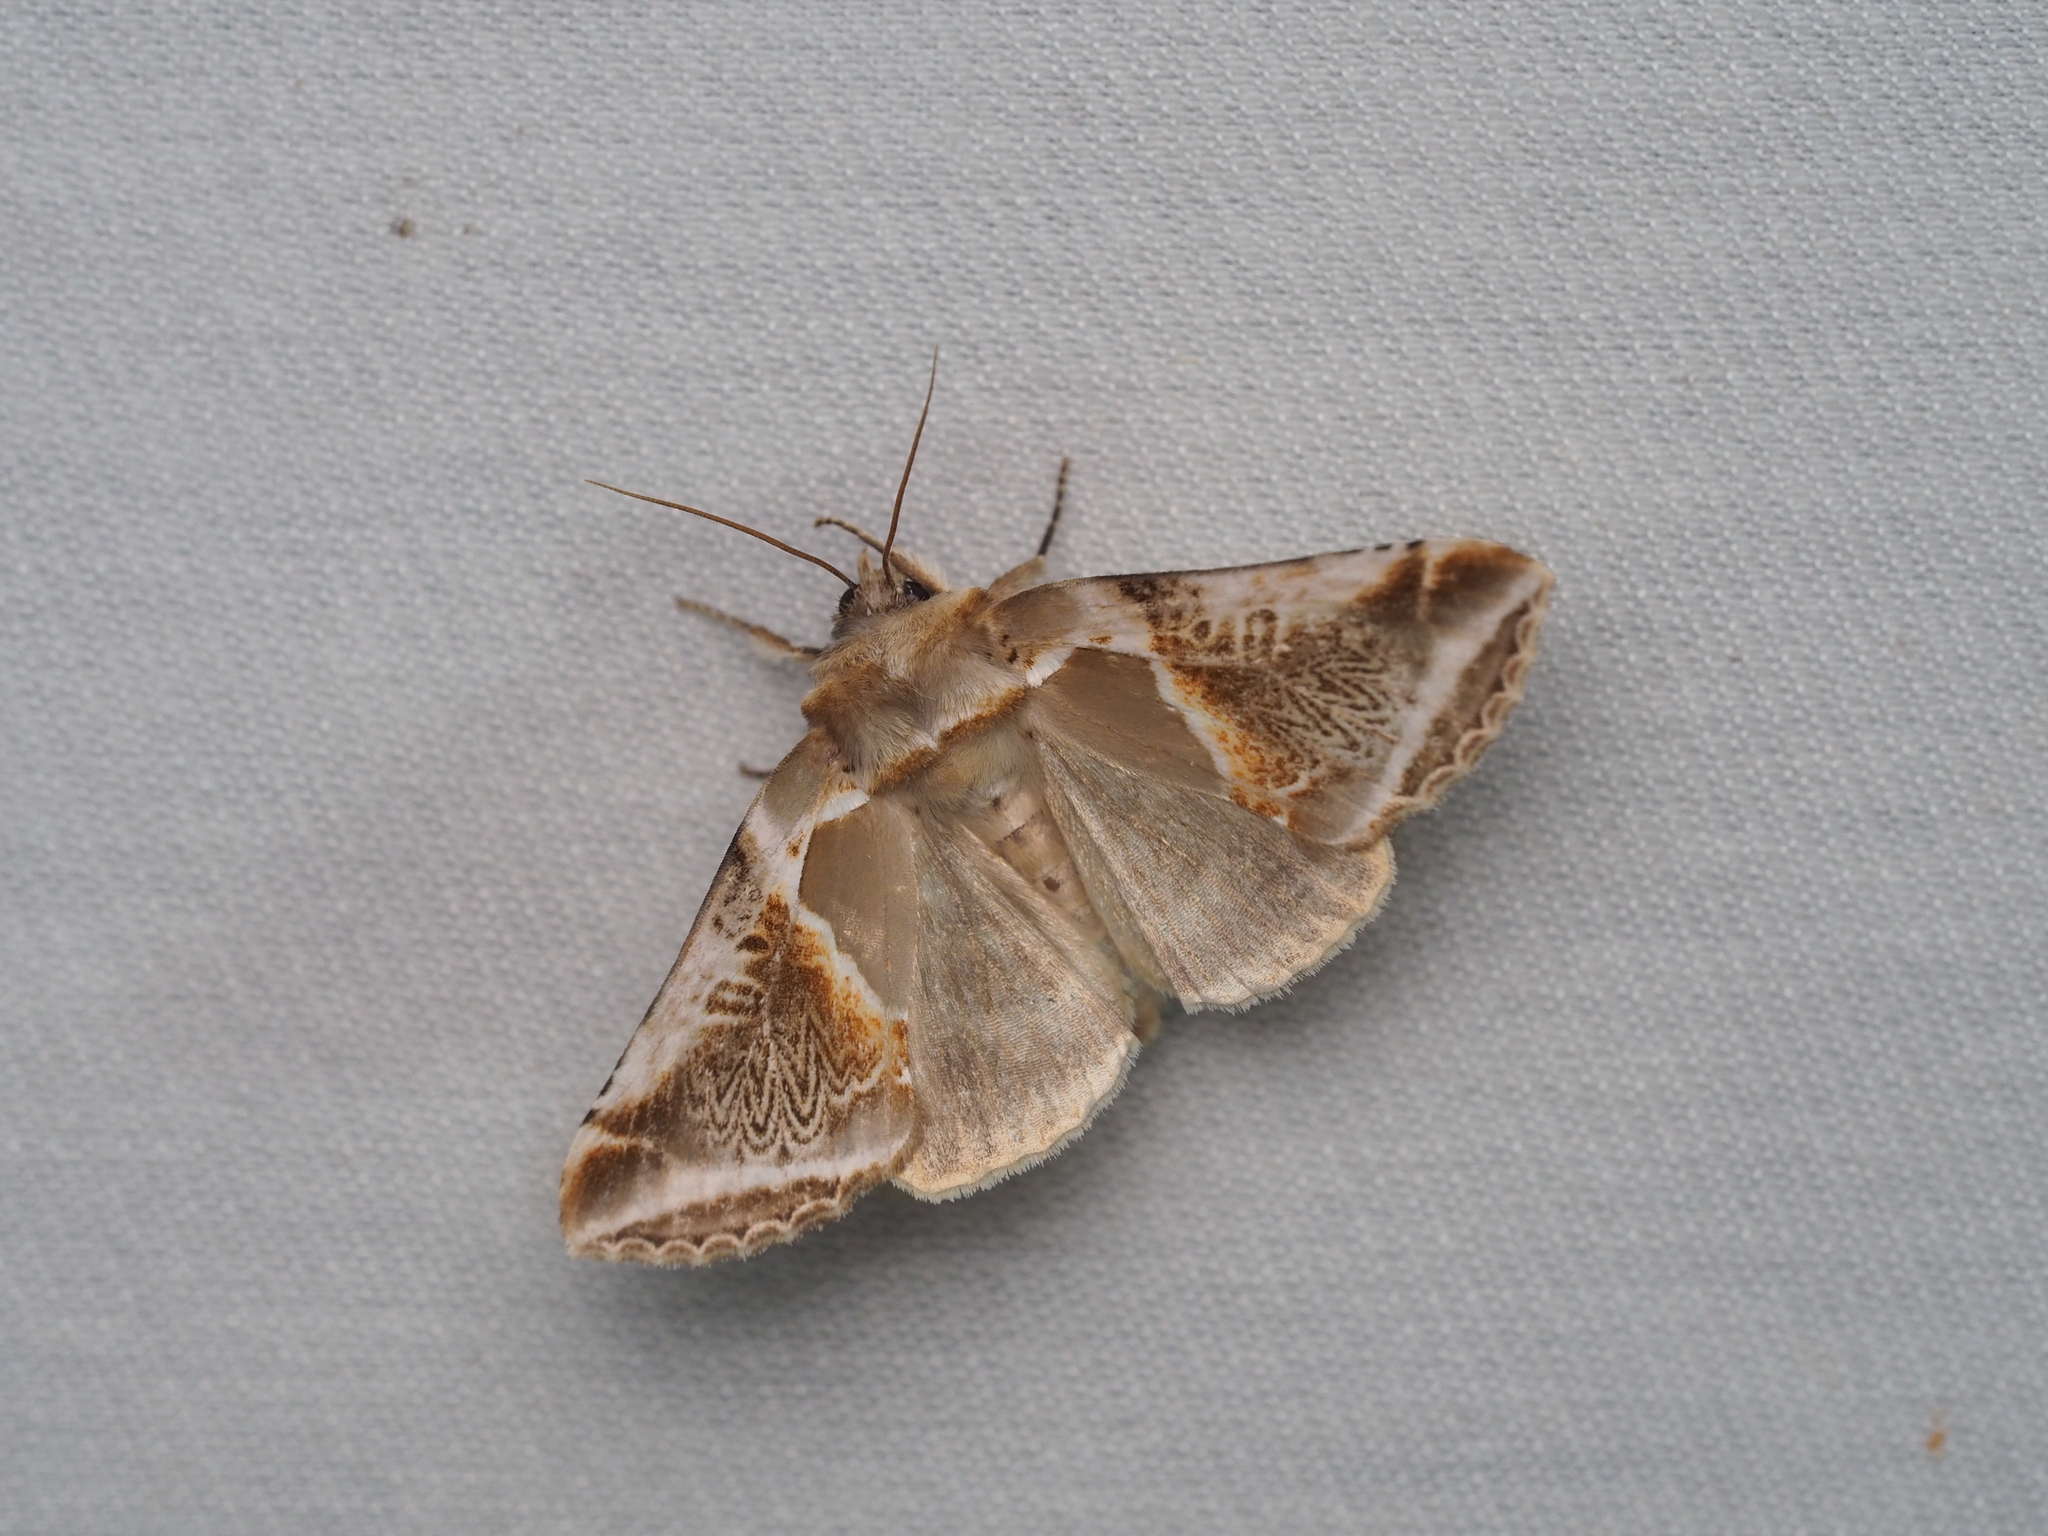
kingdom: Animalia
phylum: Arthropoda
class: Insecta
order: Lepidoptera
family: Drepanidae
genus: Habrosyne
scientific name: Habrosyne pyritoides
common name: Buff arches
